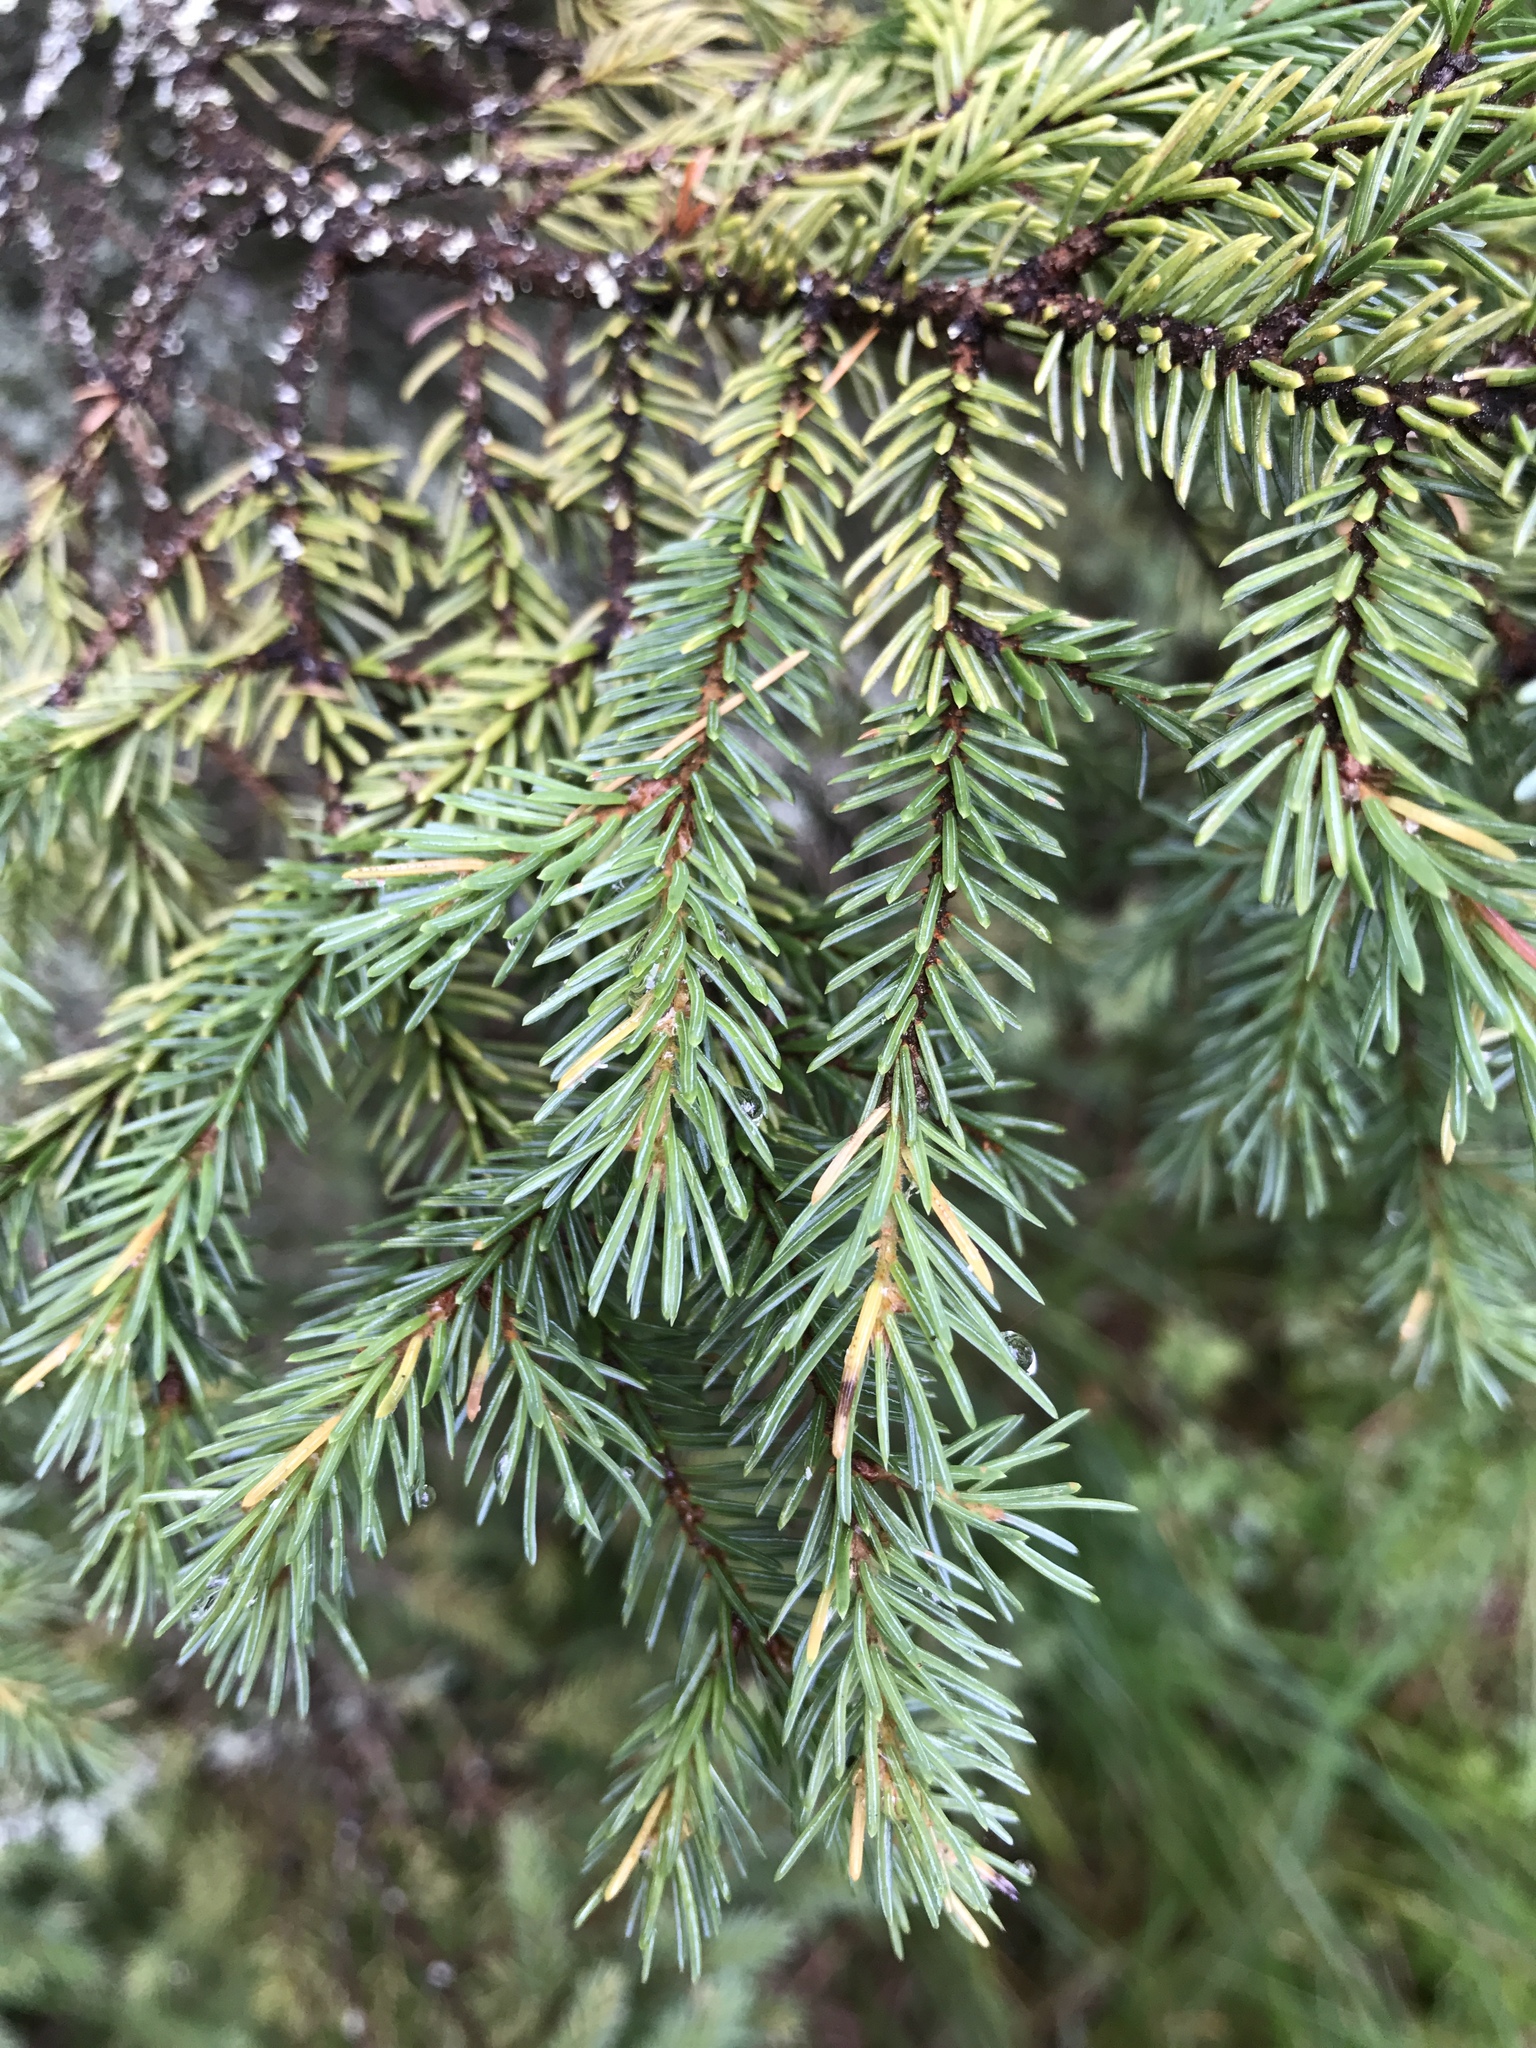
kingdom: Plantae
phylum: Tracheophyta
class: Pinopsida
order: Pinales
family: Pinaceae
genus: Picea
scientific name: Picea mariana
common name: Black spruce
